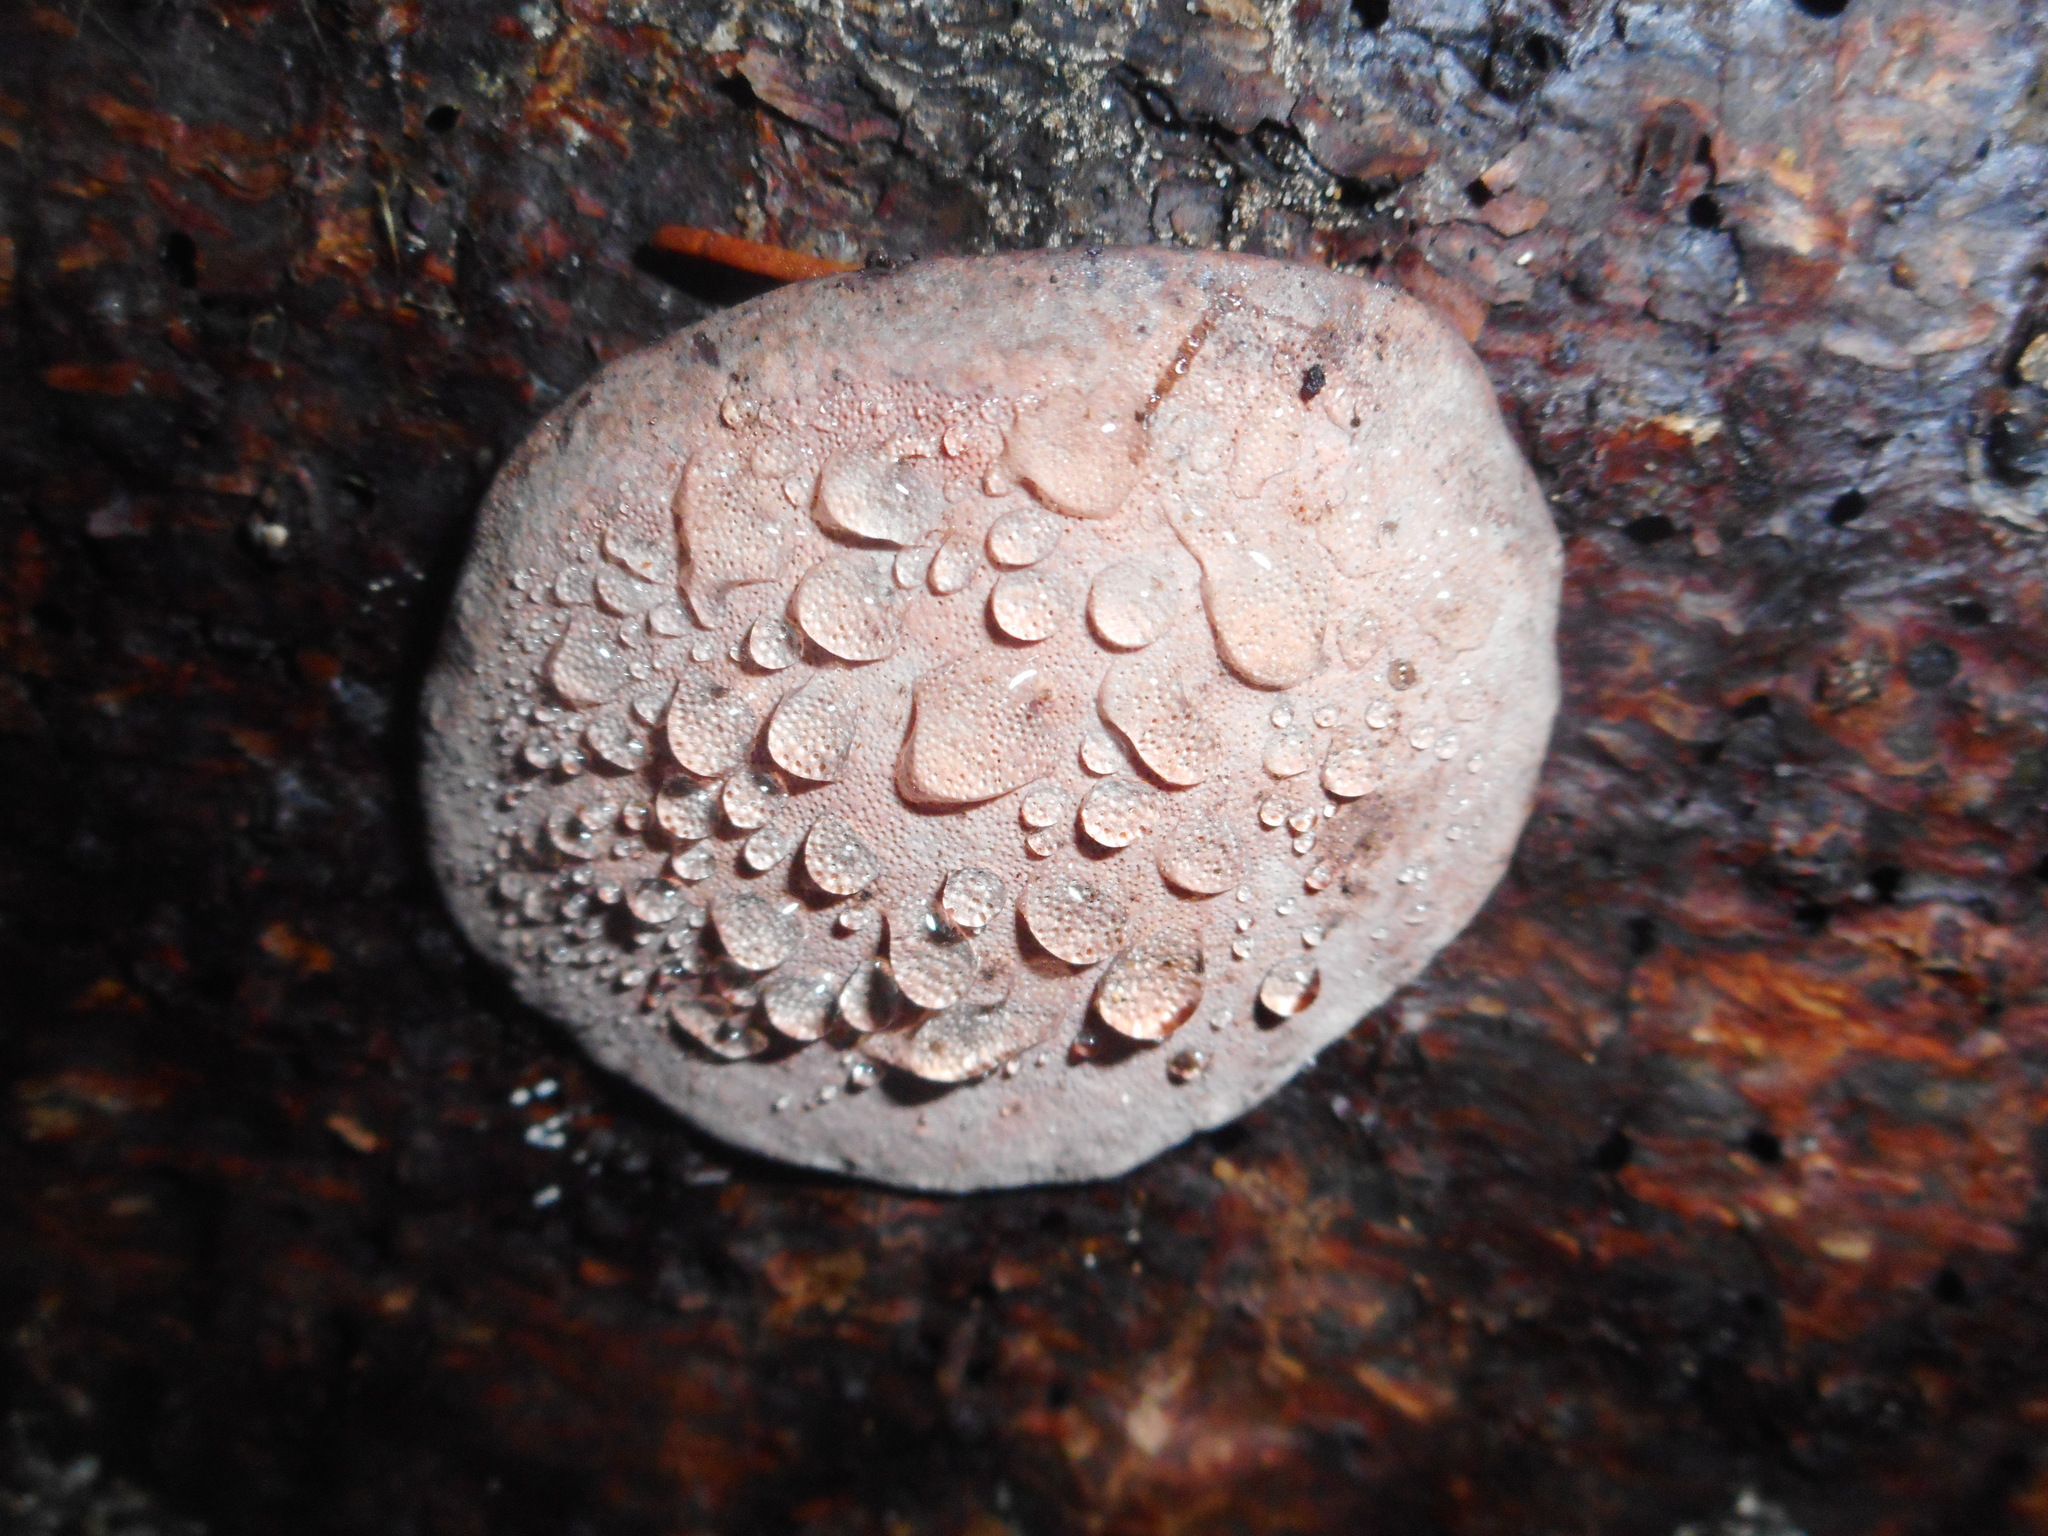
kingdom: Fungi
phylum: Basidiomycota
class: Agaricomycetes
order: Polyporales
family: Fomitopsidaceae
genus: Rhodofomes
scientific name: Rhodofomes roseus
